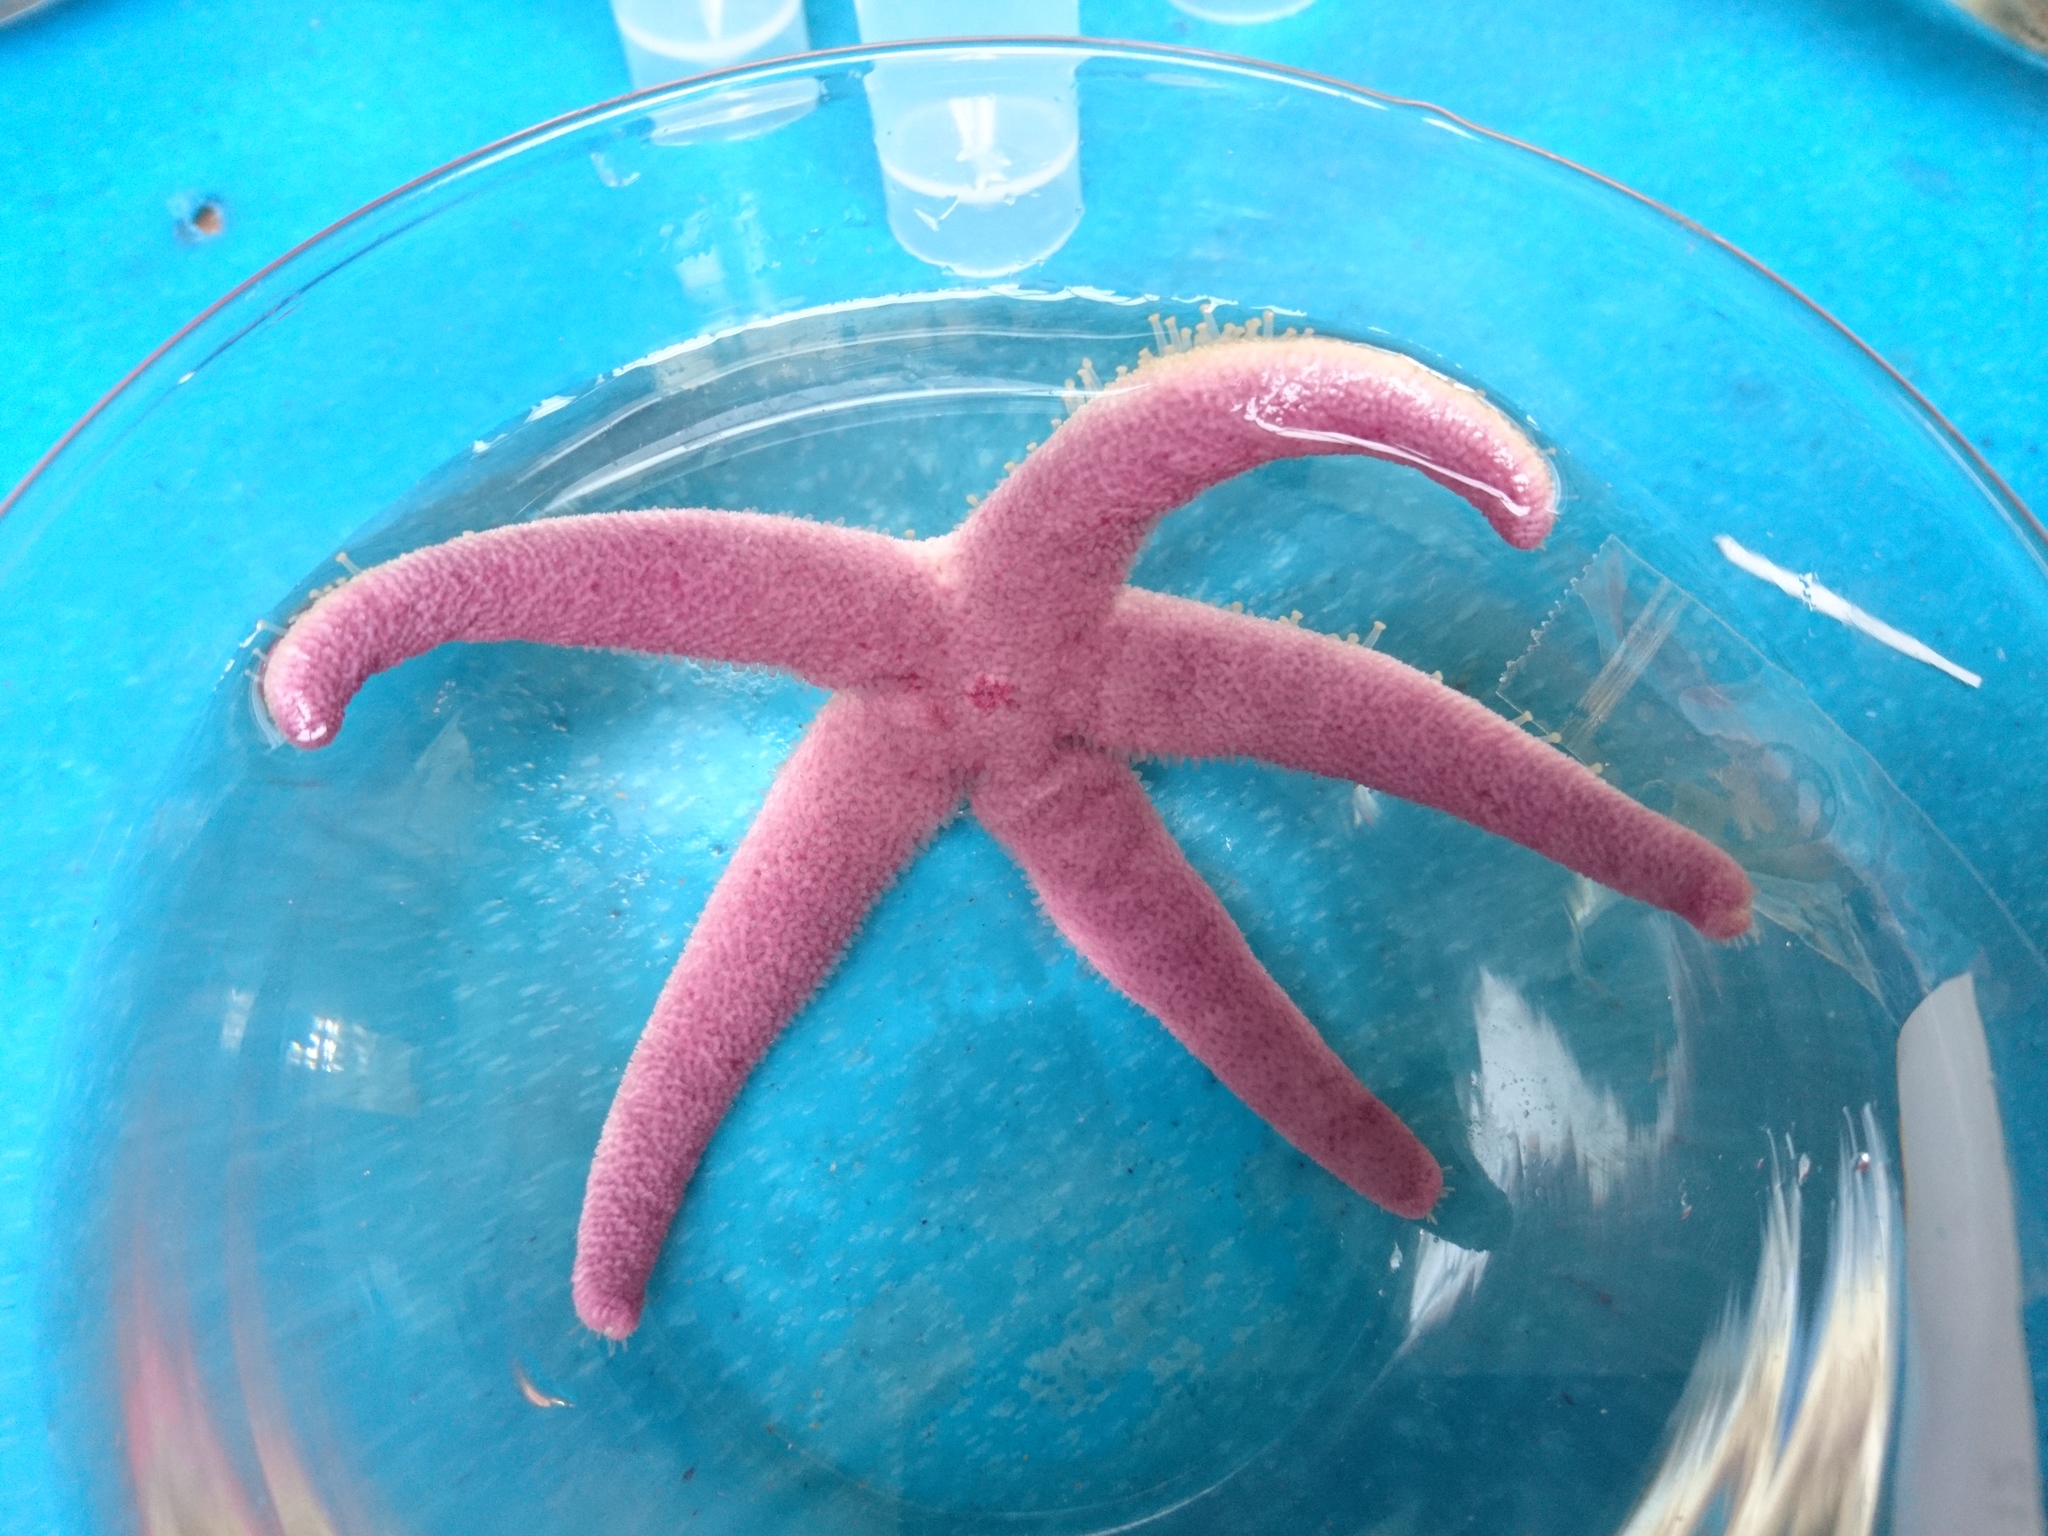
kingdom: Animalia
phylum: Echinodermata
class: Asteroidea
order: Spinulosida
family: Echinasteridae
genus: Henricia
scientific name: Henricia sanguinolenta
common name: Blood star
